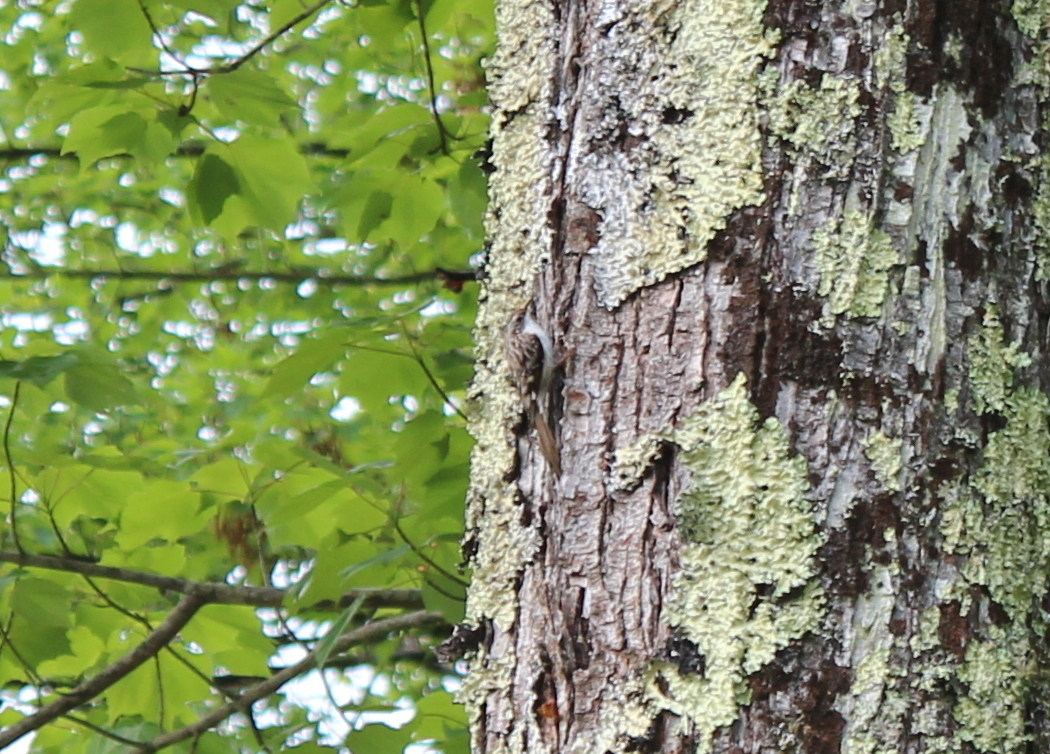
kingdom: Animalia
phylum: Chordata
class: Aves
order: Passeriformes
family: Certhiidae
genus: Certhia
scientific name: Certhia americana
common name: Brown creeper
